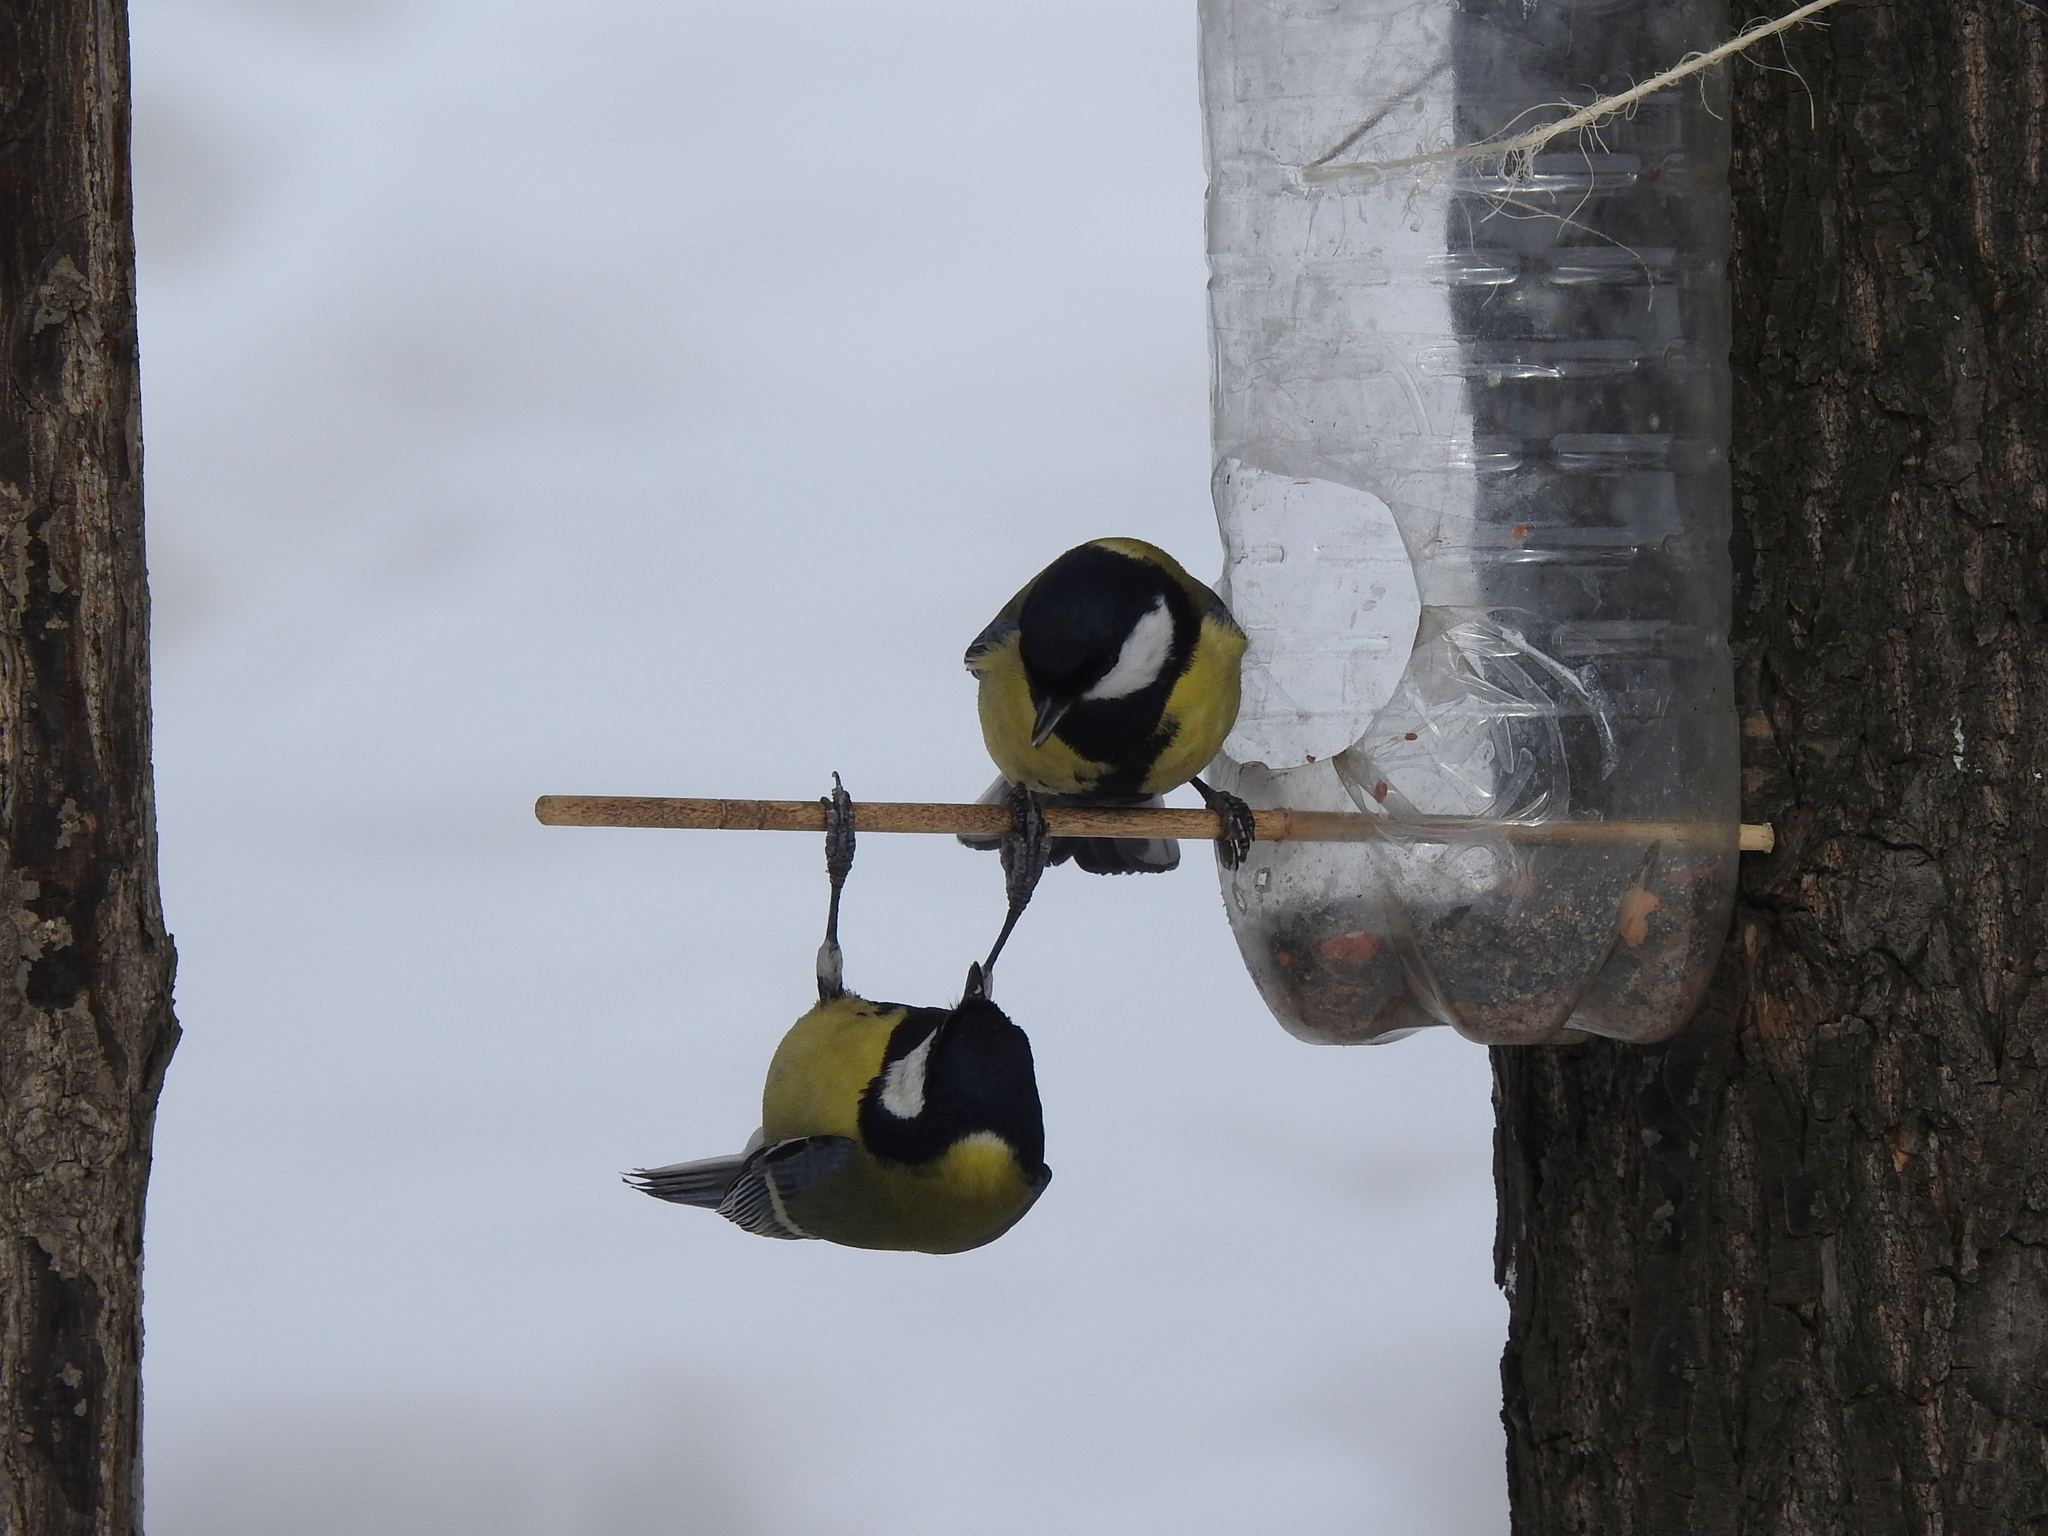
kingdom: Animalia
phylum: Chordata
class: Aves
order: Passeriformes
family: Paridae
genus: Parus
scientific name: Parus major
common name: Great tit
